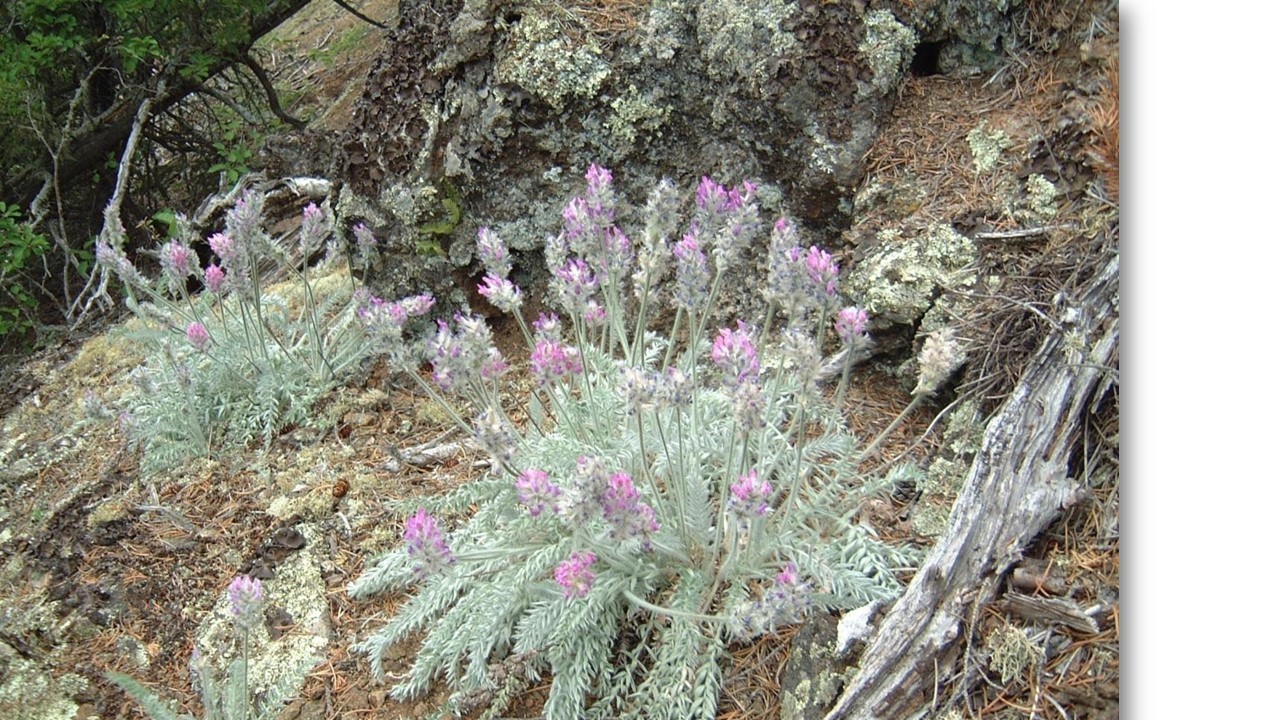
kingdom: Plantae
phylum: Tracheophyta
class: Magnoliopsida
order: Fabales
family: Fabaceae
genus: Oxytropis
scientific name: Oxytropis splendens
